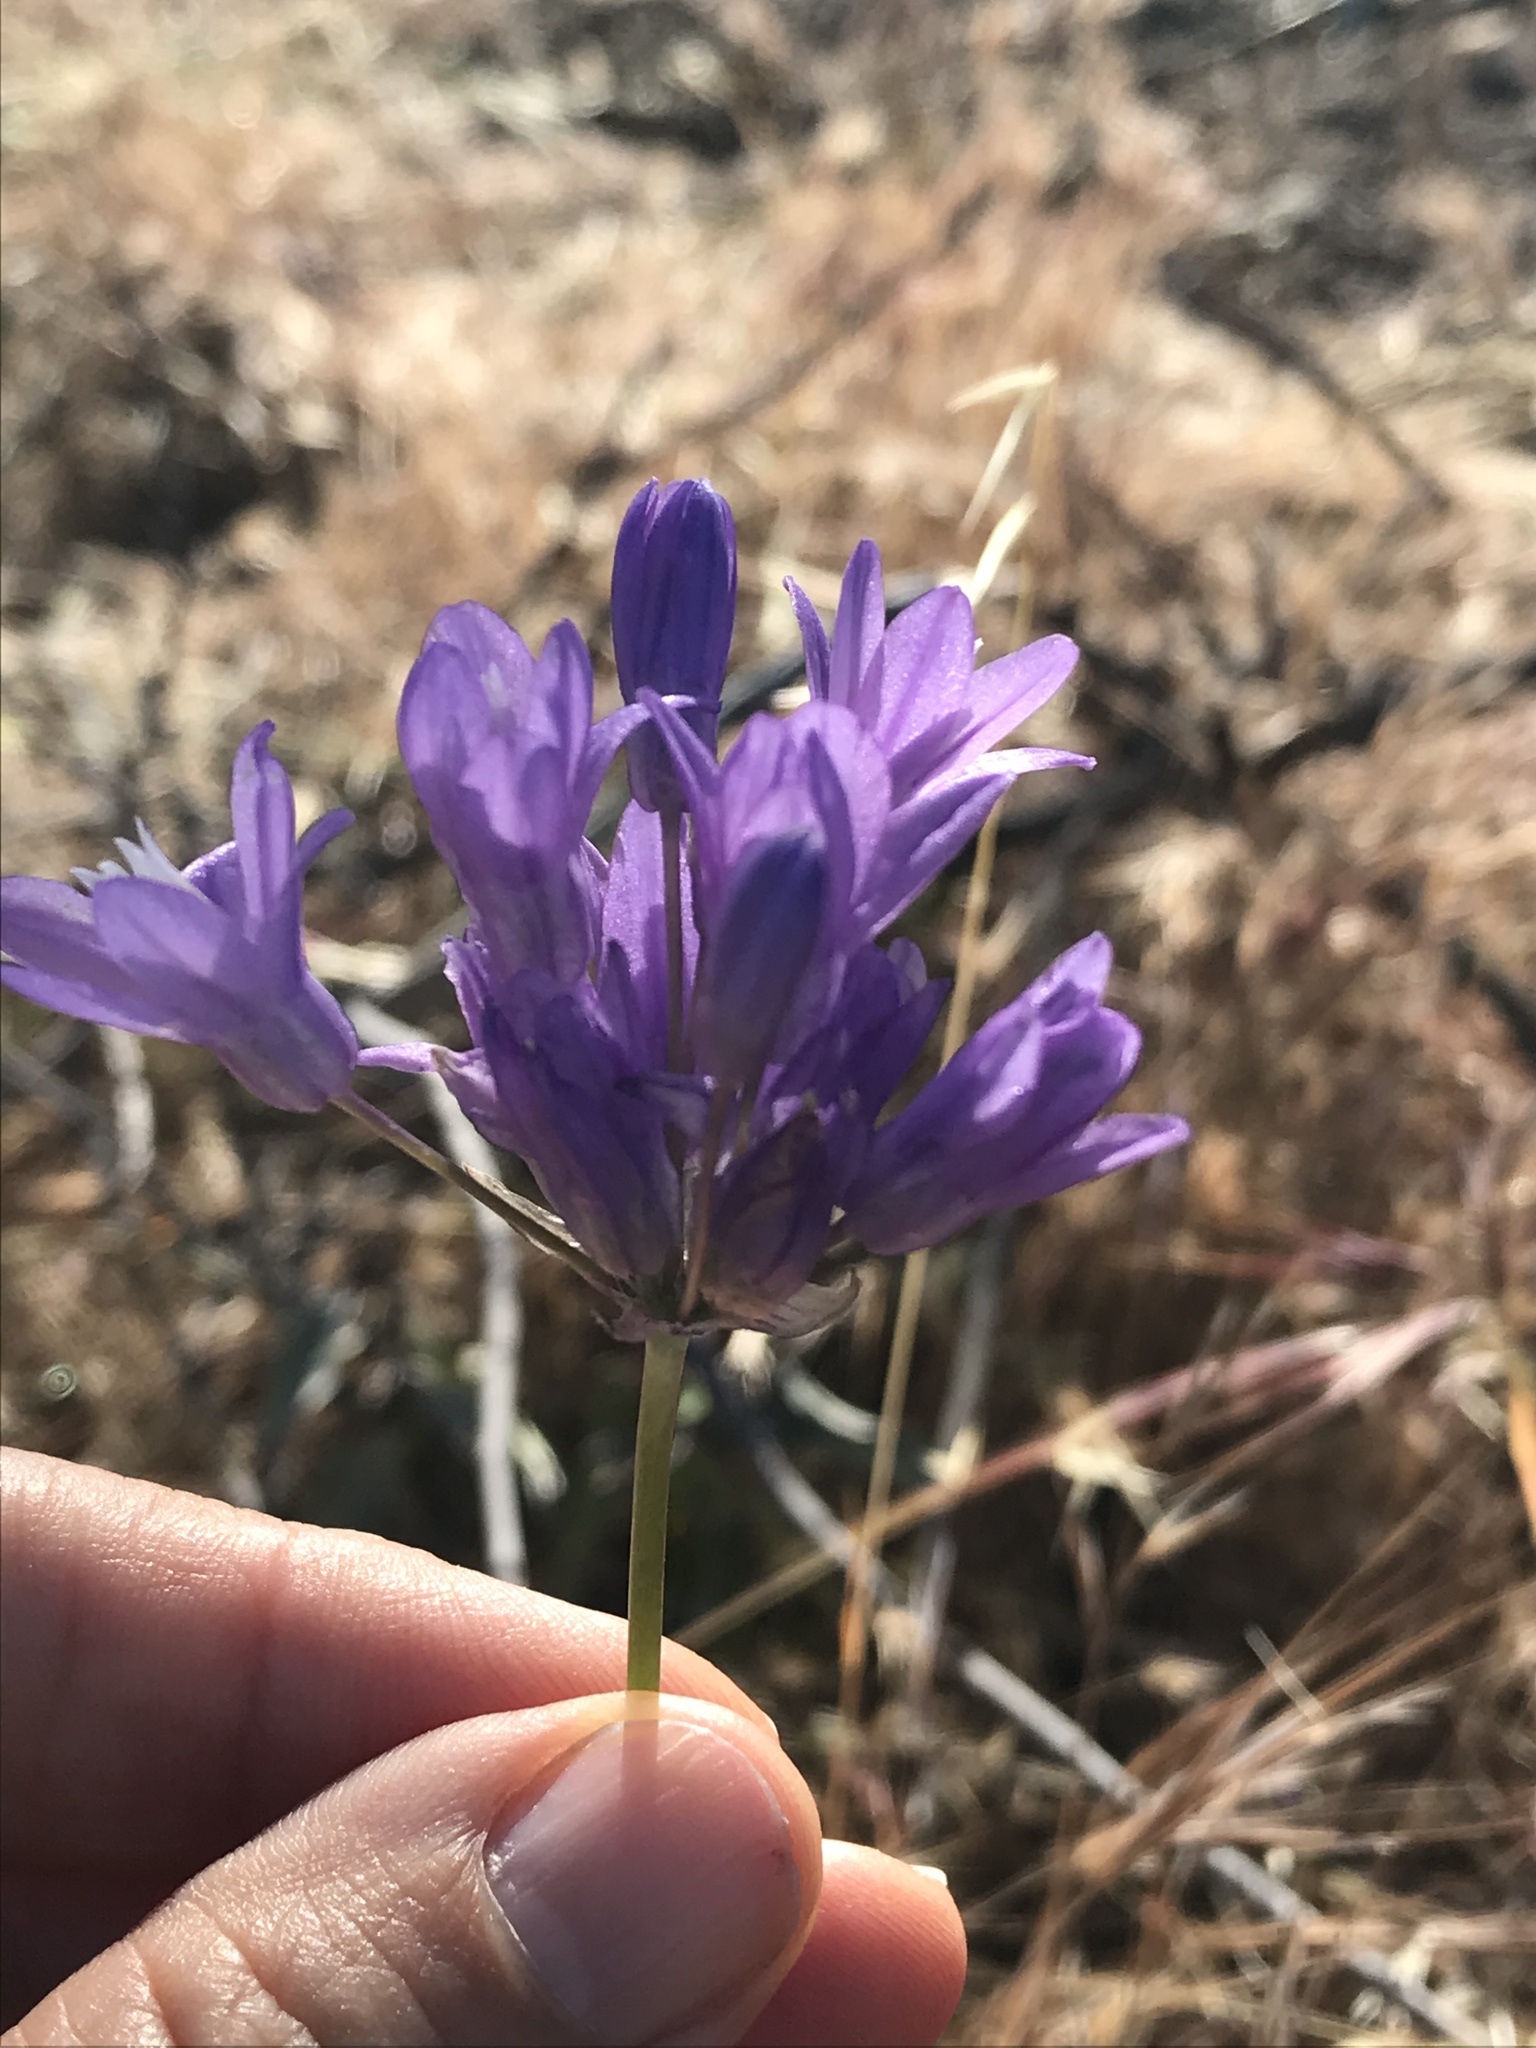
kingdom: Plantae
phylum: Tracheophyta
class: Liliopsida
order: Asparagales
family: Asparagaceae
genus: Dipterostemon
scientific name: Dipterostemon capitatus
